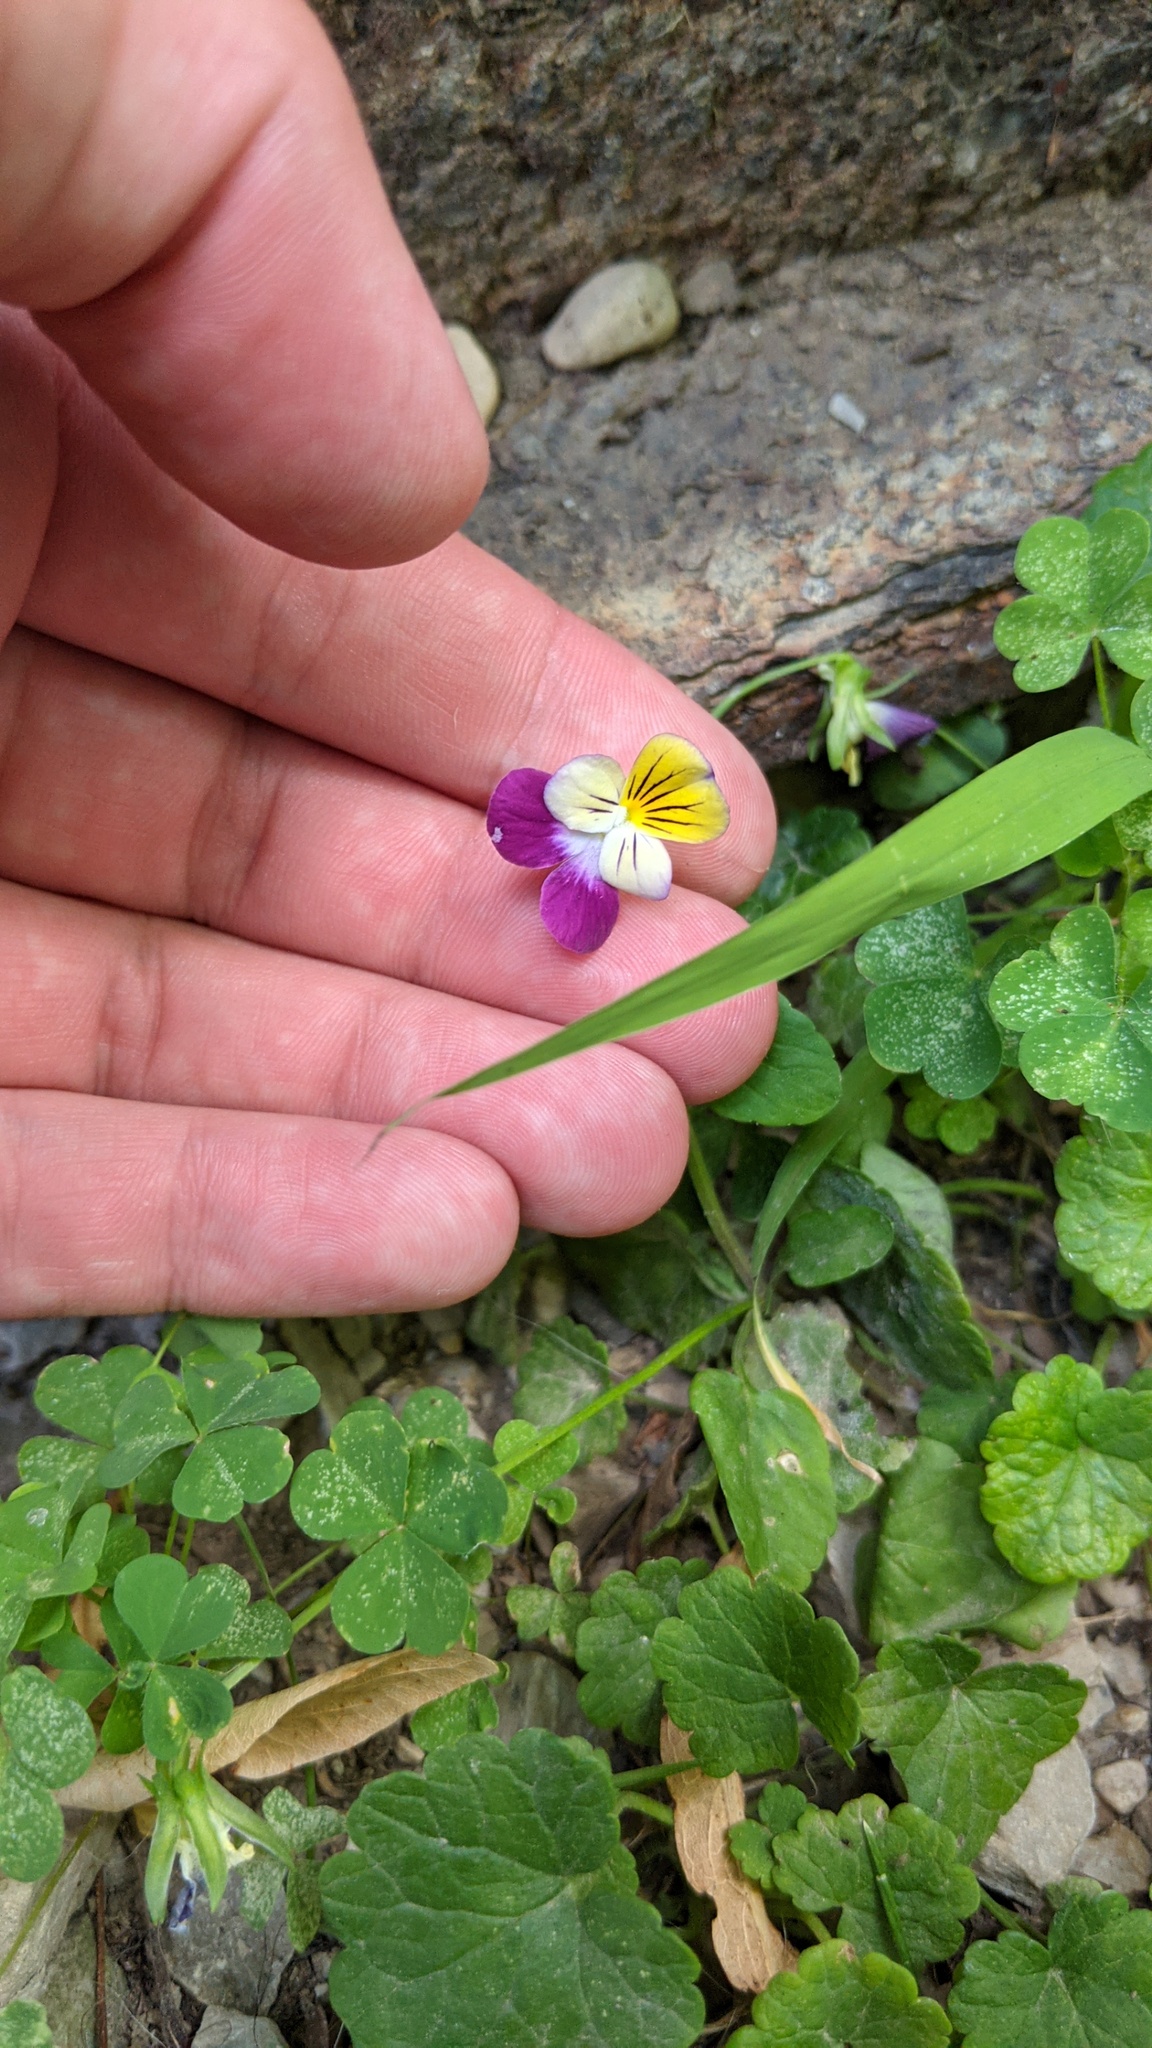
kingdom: Plantae
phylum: Tracheophyta
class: Magnoliopsida
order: Malpighiales
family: Violaceae
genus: Viola
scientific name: Viola williamsii
